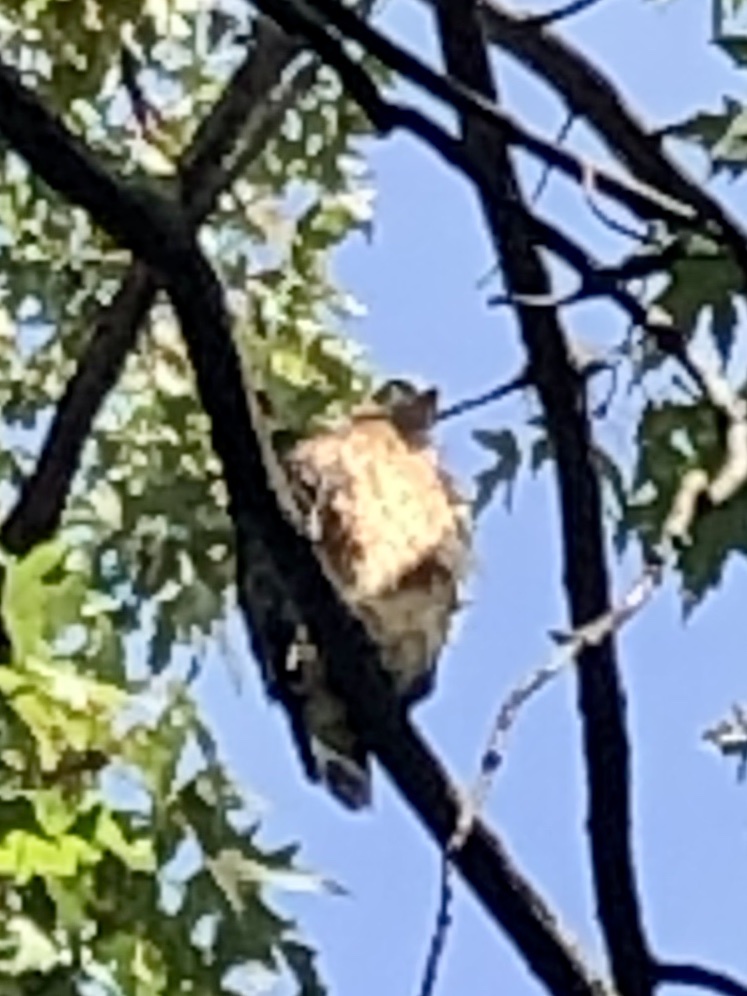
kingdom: Animalia
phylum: Chordata
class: Aves
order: Accipitriformes
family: Accipitridae
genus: Buteo
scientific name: Buteo lineatus
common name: Red-shouldered hawk
